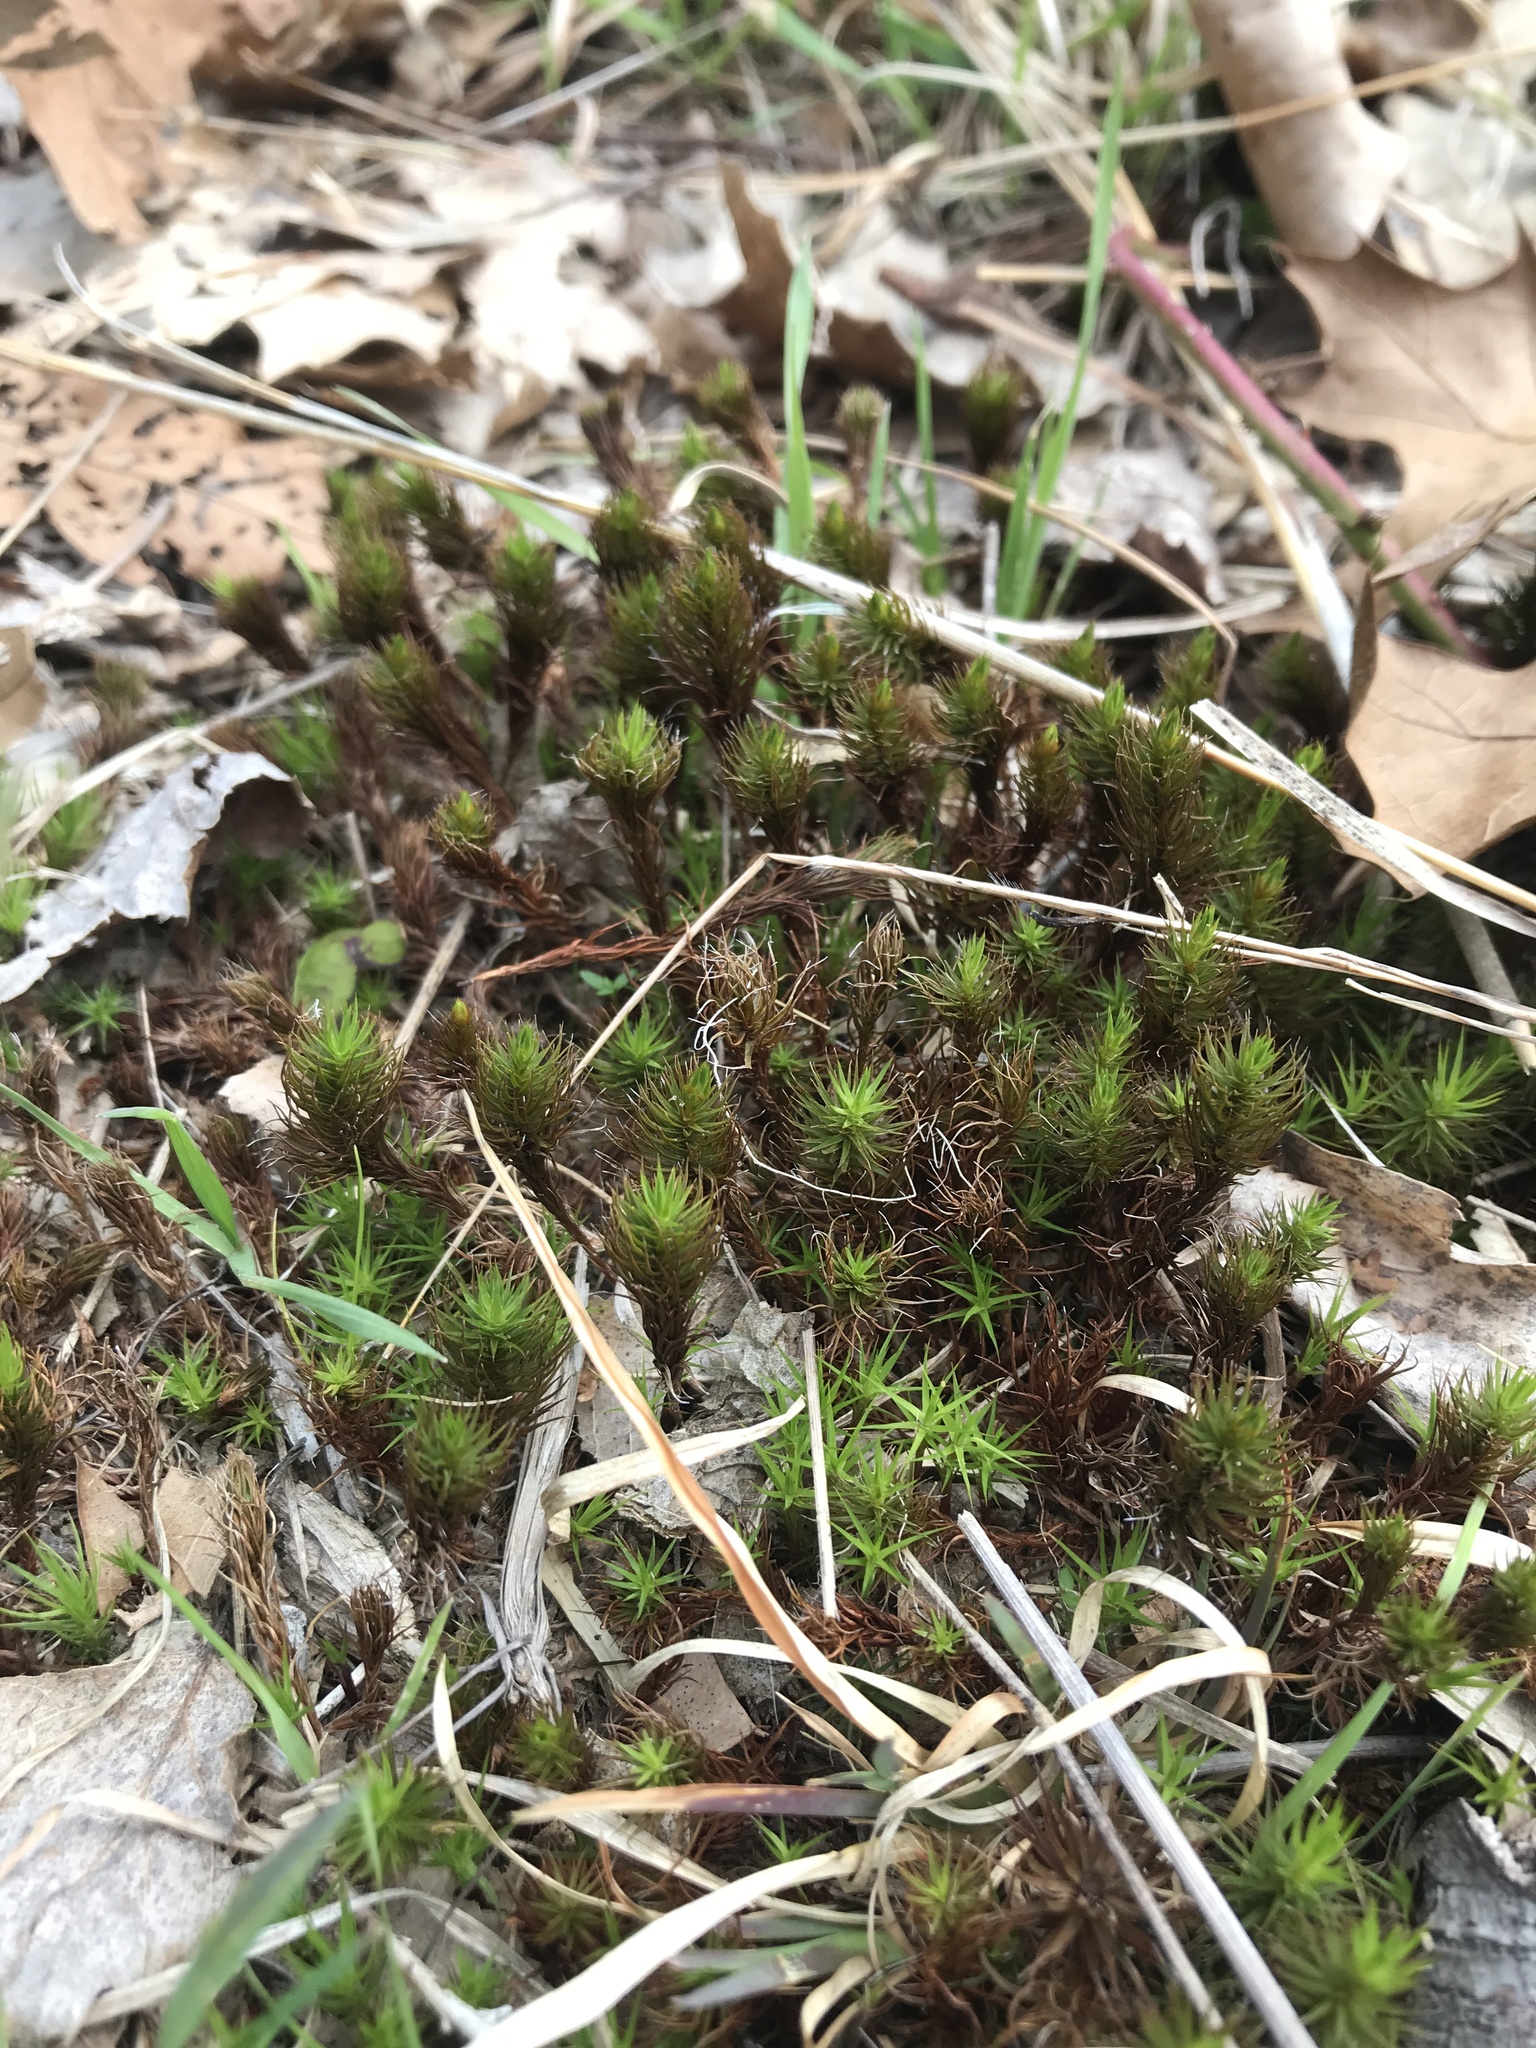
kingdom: Plantae
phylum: Bryophyta
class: Polytrichopsida
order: Polytrichales
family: Polytrichaceae
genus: Polytrichum
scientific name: Polytrichum commune
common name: Common haircap
